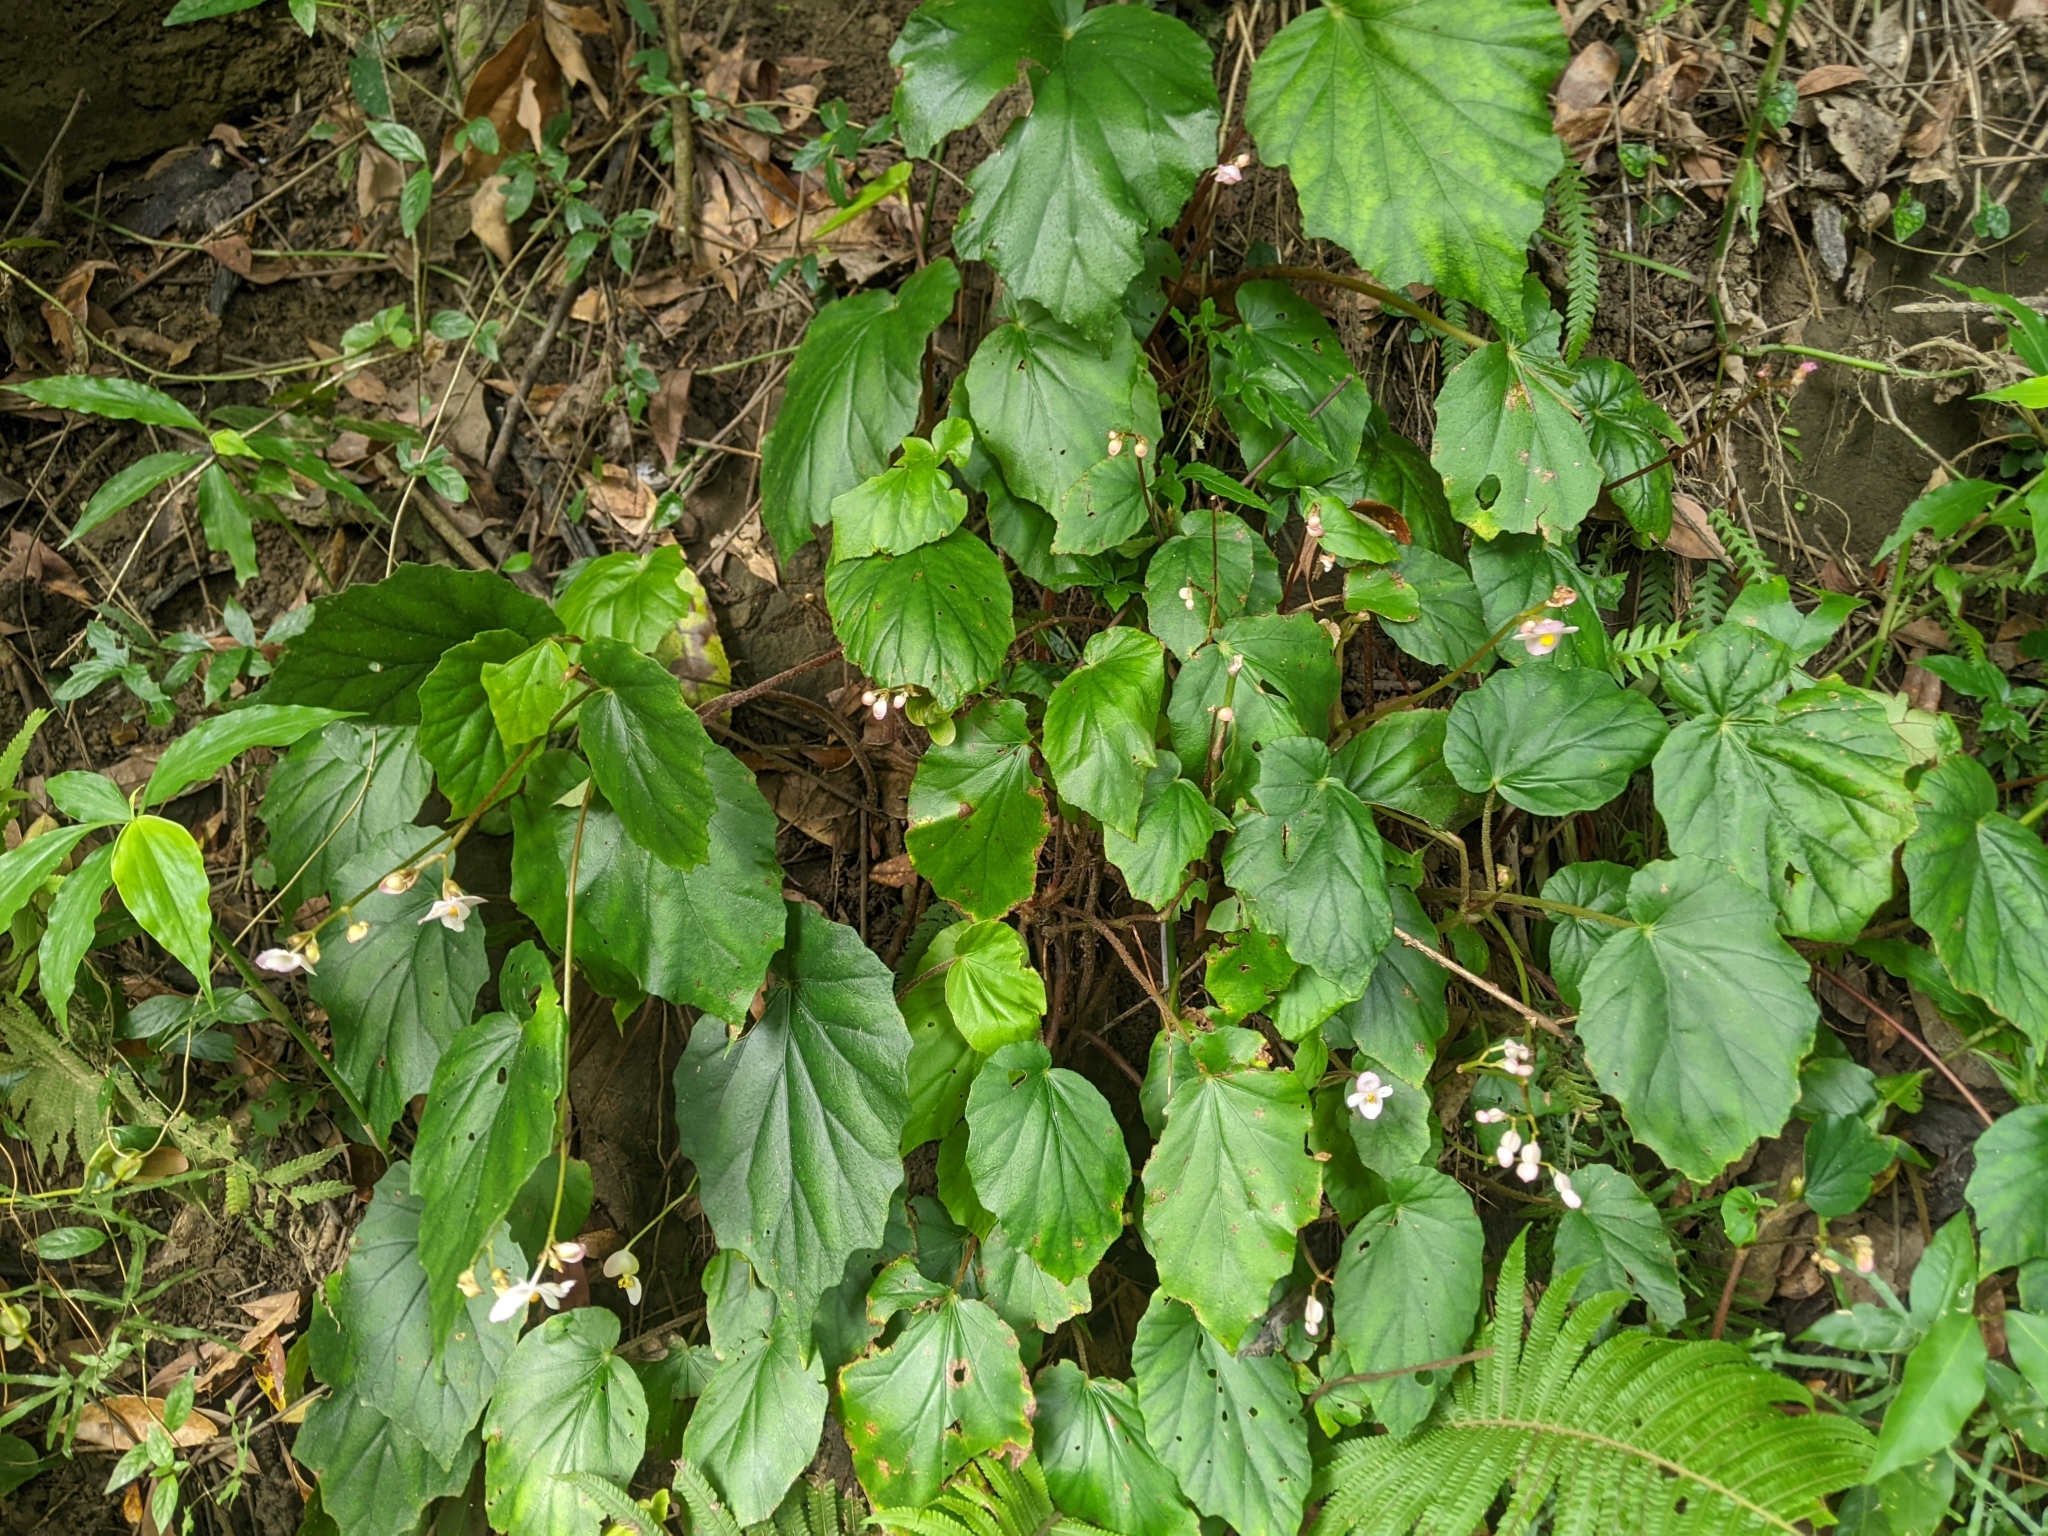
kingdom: Plantae
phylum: Tracheophyta
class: Magnoliopsida
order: Cucurbitales
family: Begoniaceae
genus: Begonia
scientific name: Begonia chitoensis
